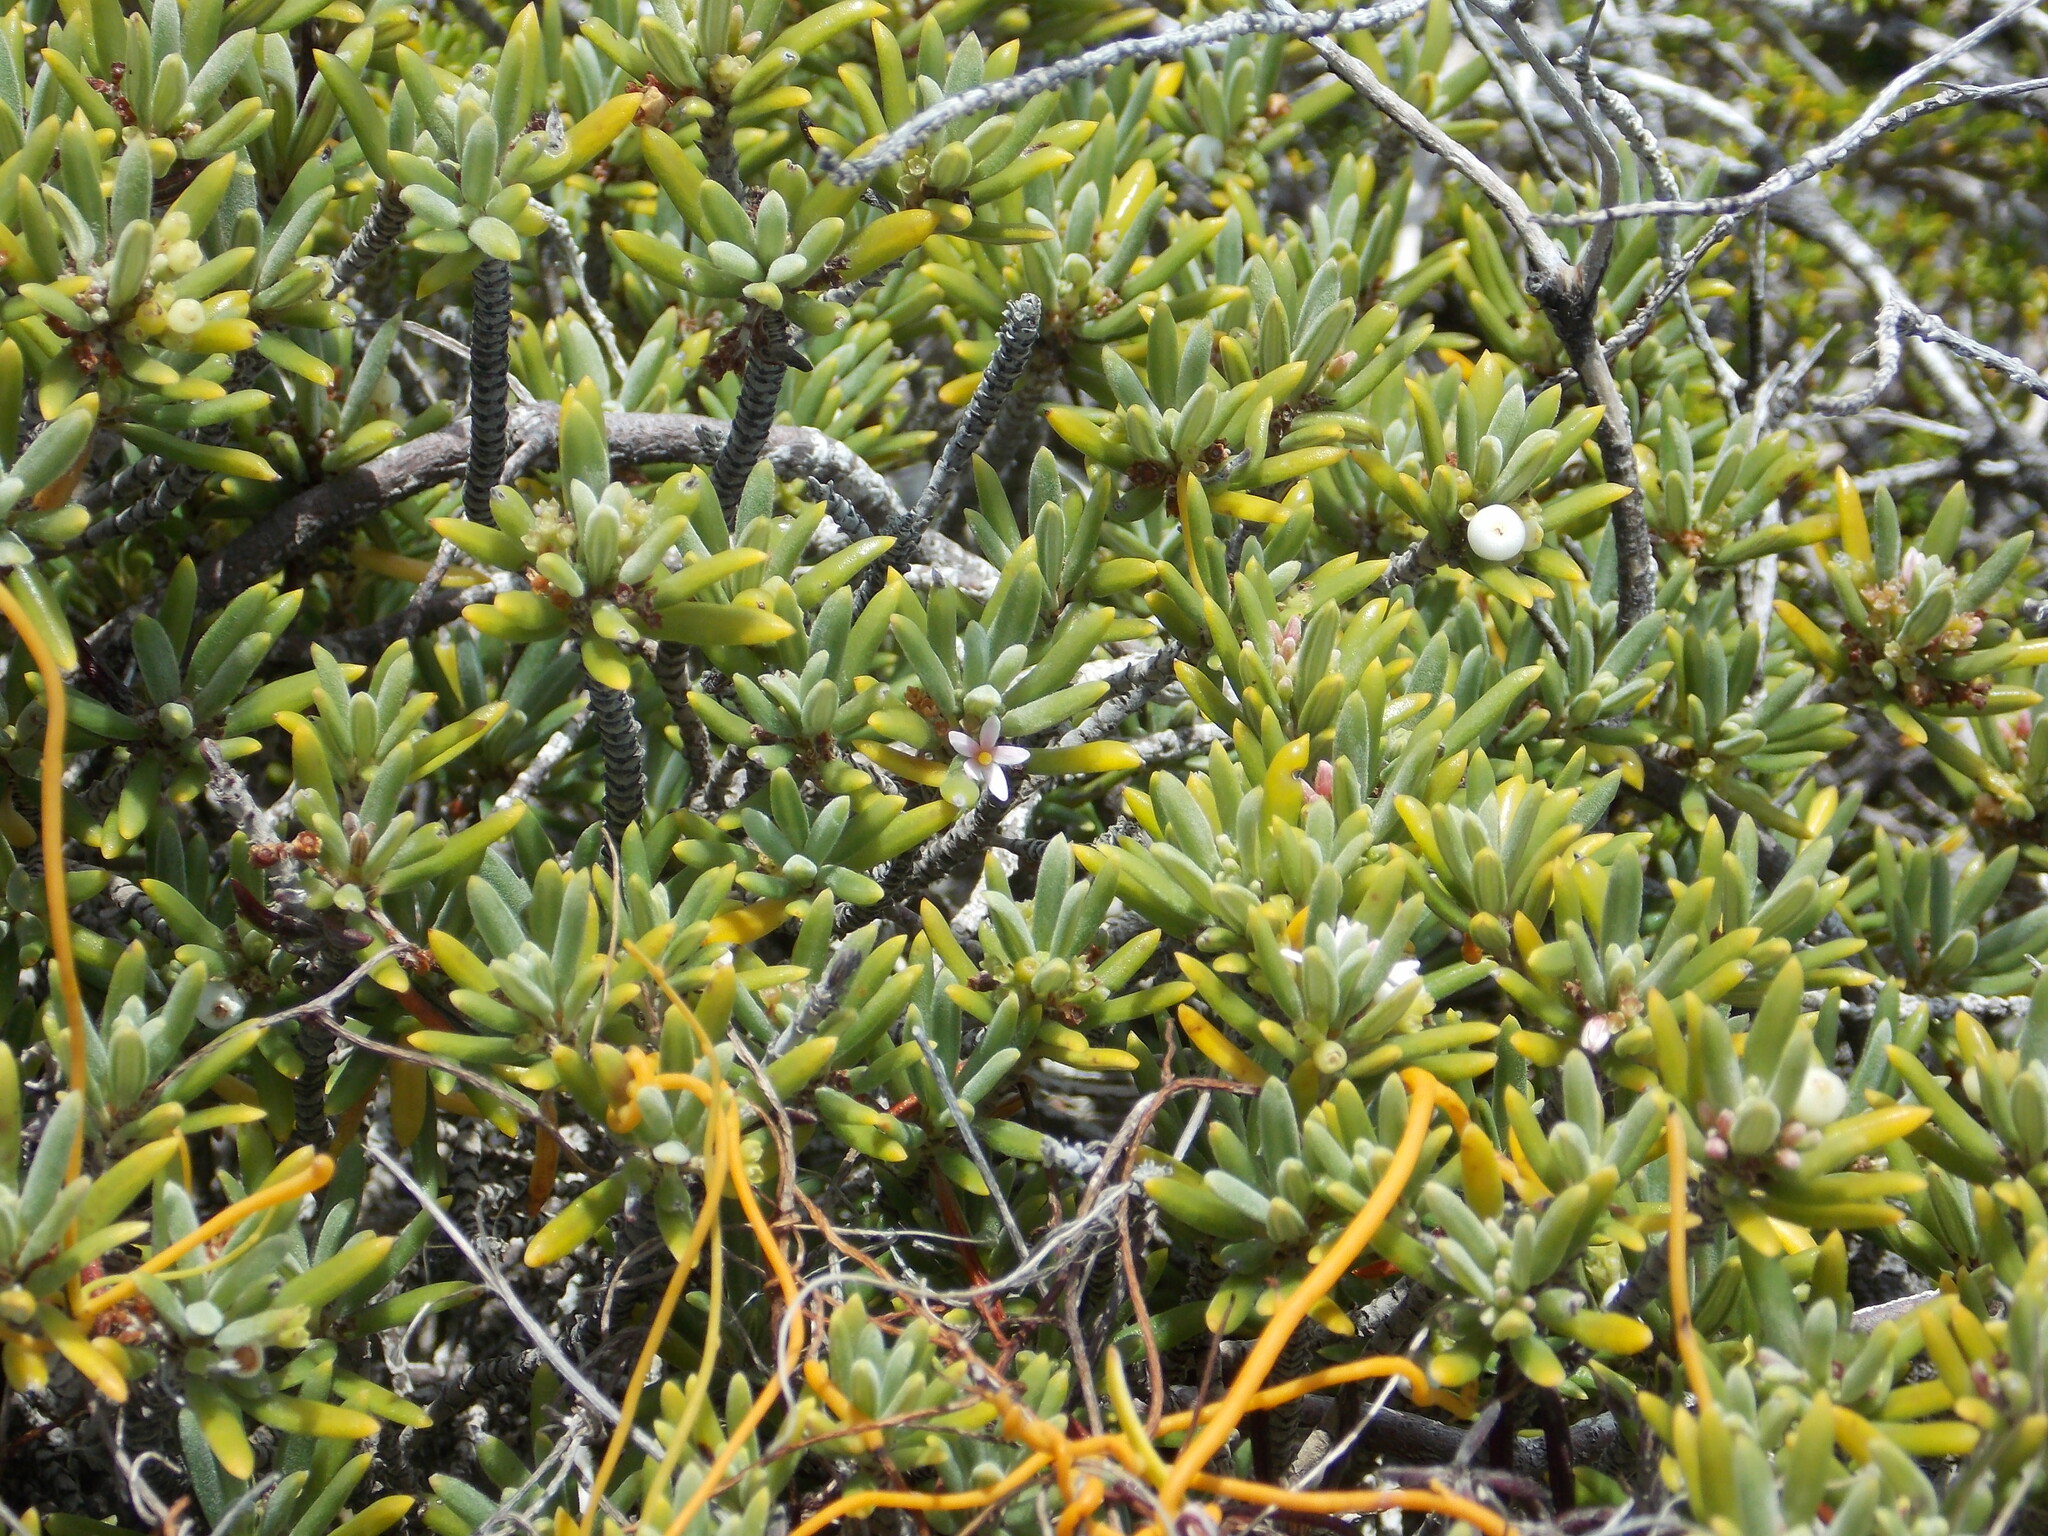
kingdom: Plantae
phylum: Tracheophyta
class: Magnoliopsida
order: Gentianales
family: Rubiaceae
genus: Strumpfia
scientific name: Strumpfia maritima
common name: Pride-of-big pine
